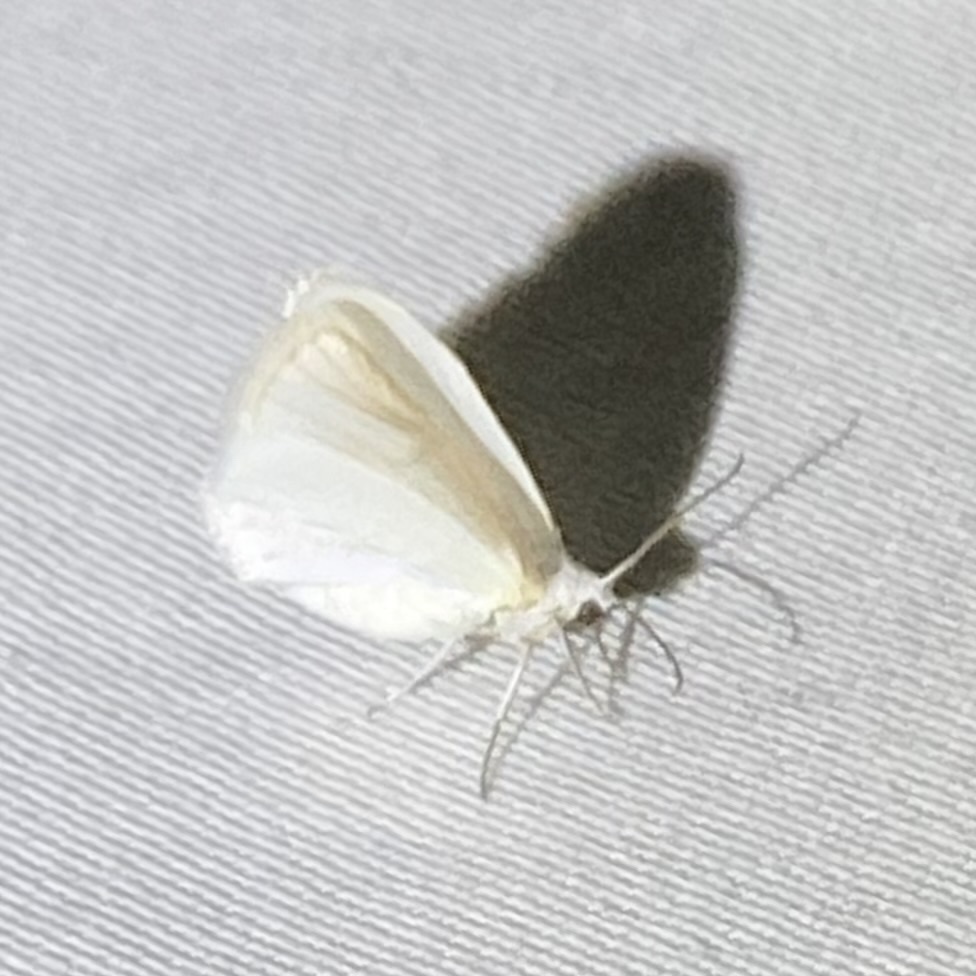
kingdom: Animalia
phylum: Arthropoda
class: Insecta
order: Lepidoptera
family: Geometridae
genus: Lomographa
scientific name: Lomographa vestaliata
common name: White spring moth
